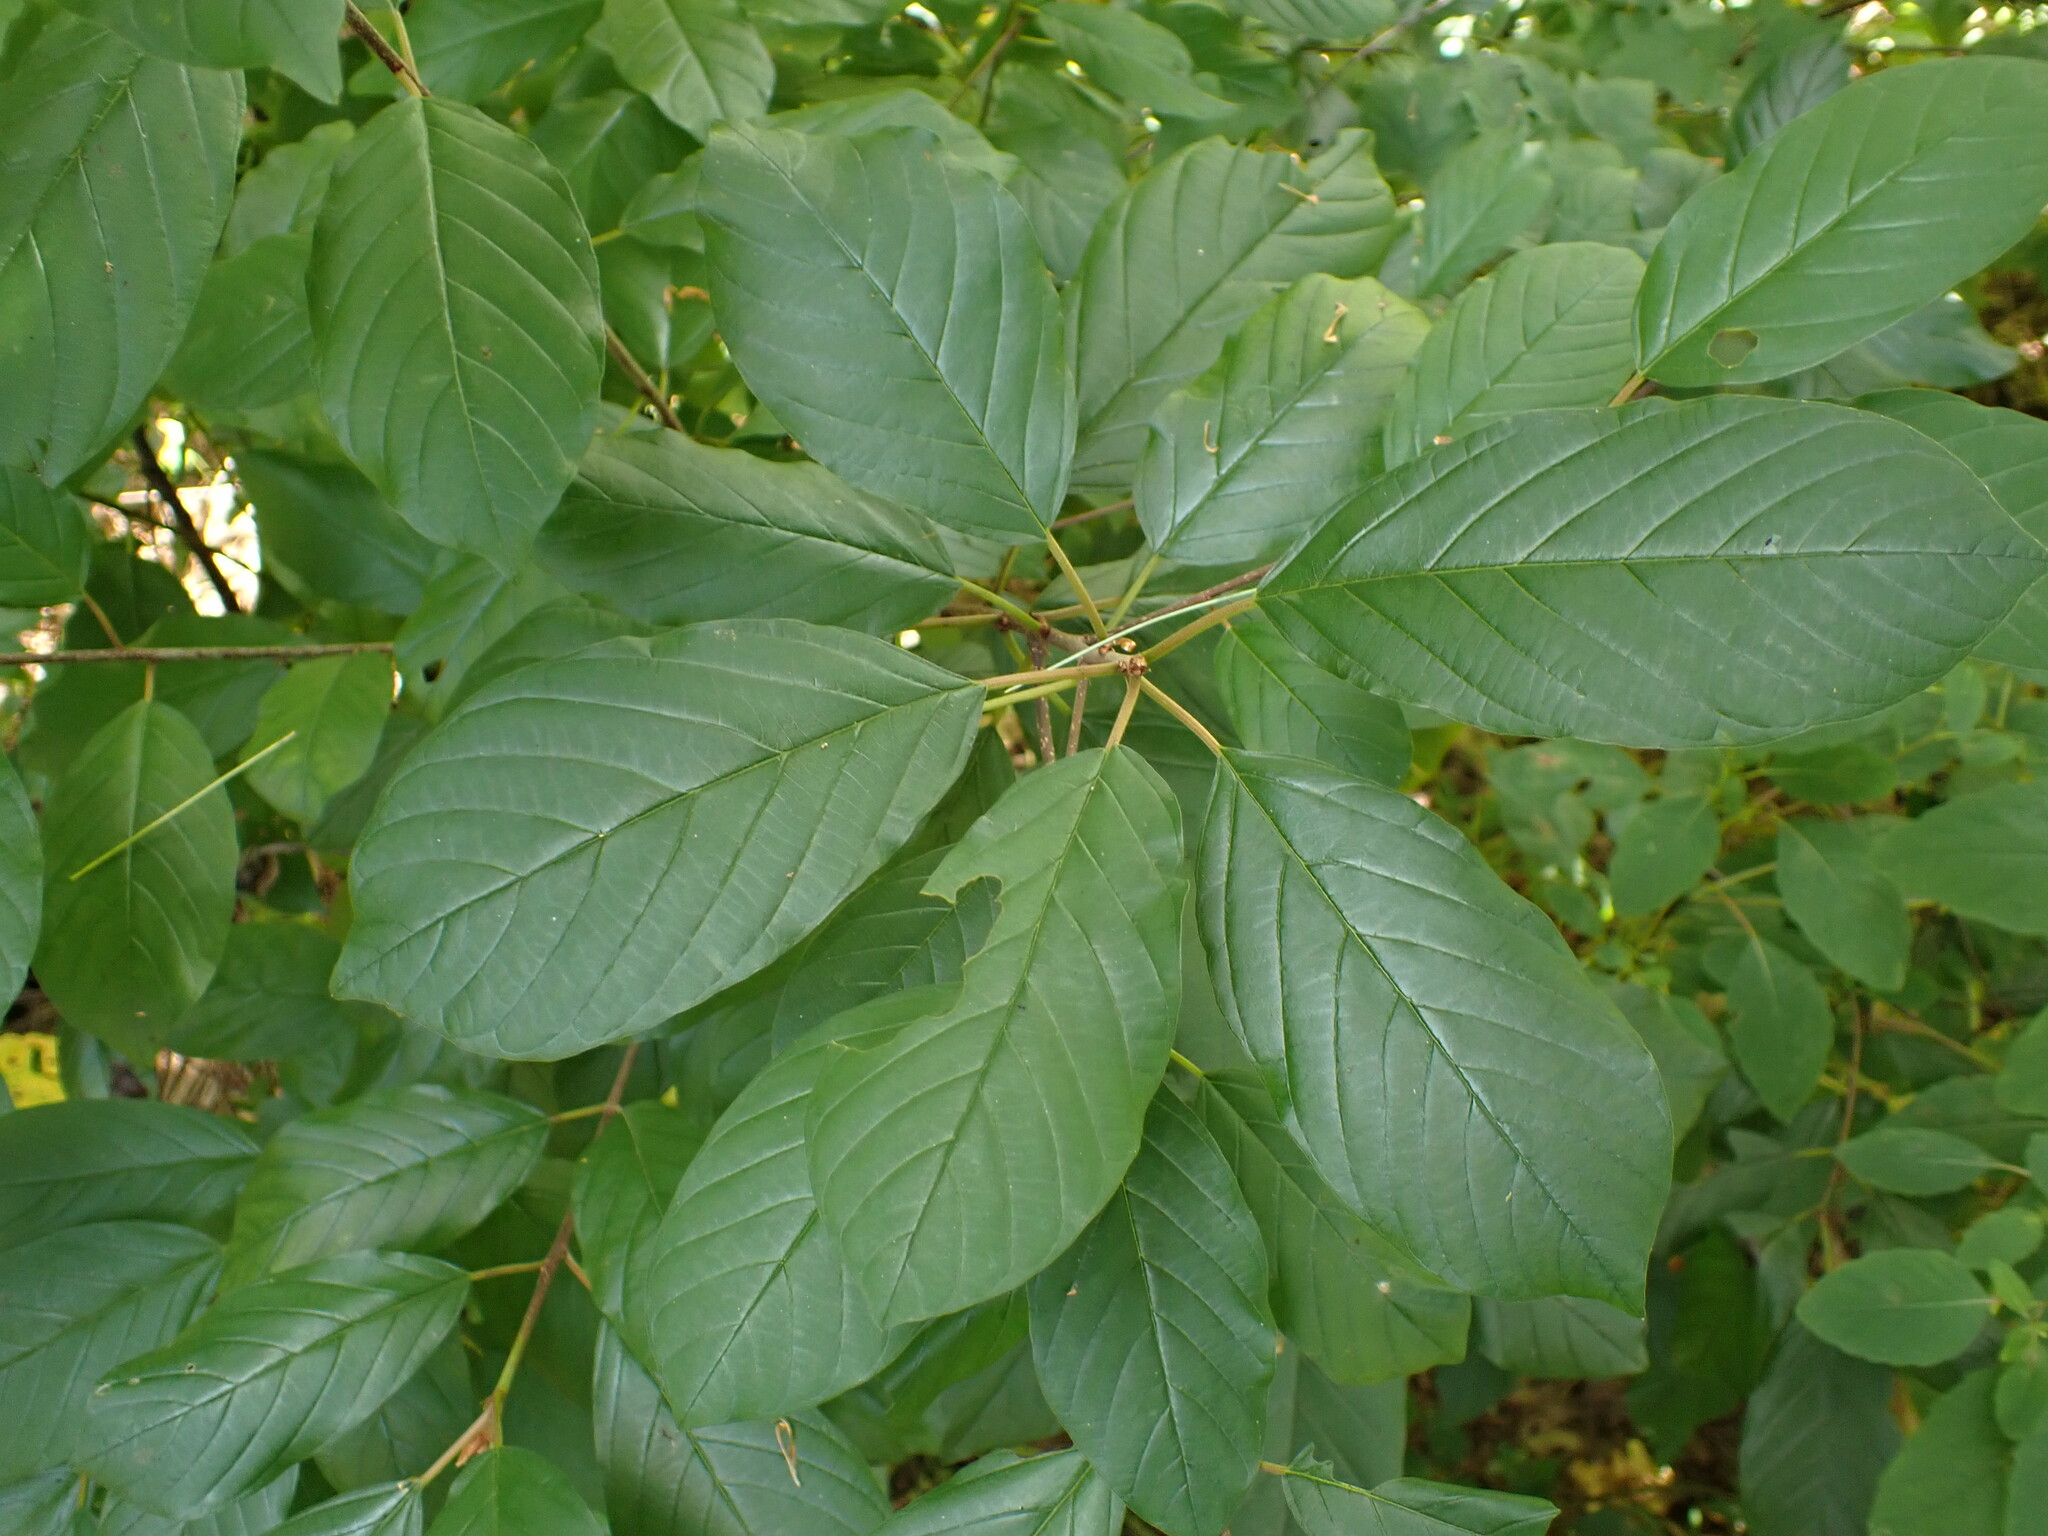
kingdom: Plantae
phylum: Tracheophyta
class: Magnoliopsida
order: Rosales
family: Rhamnaceae
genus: Frangula
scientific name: Frangula alnus
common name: Alder buckthorn
